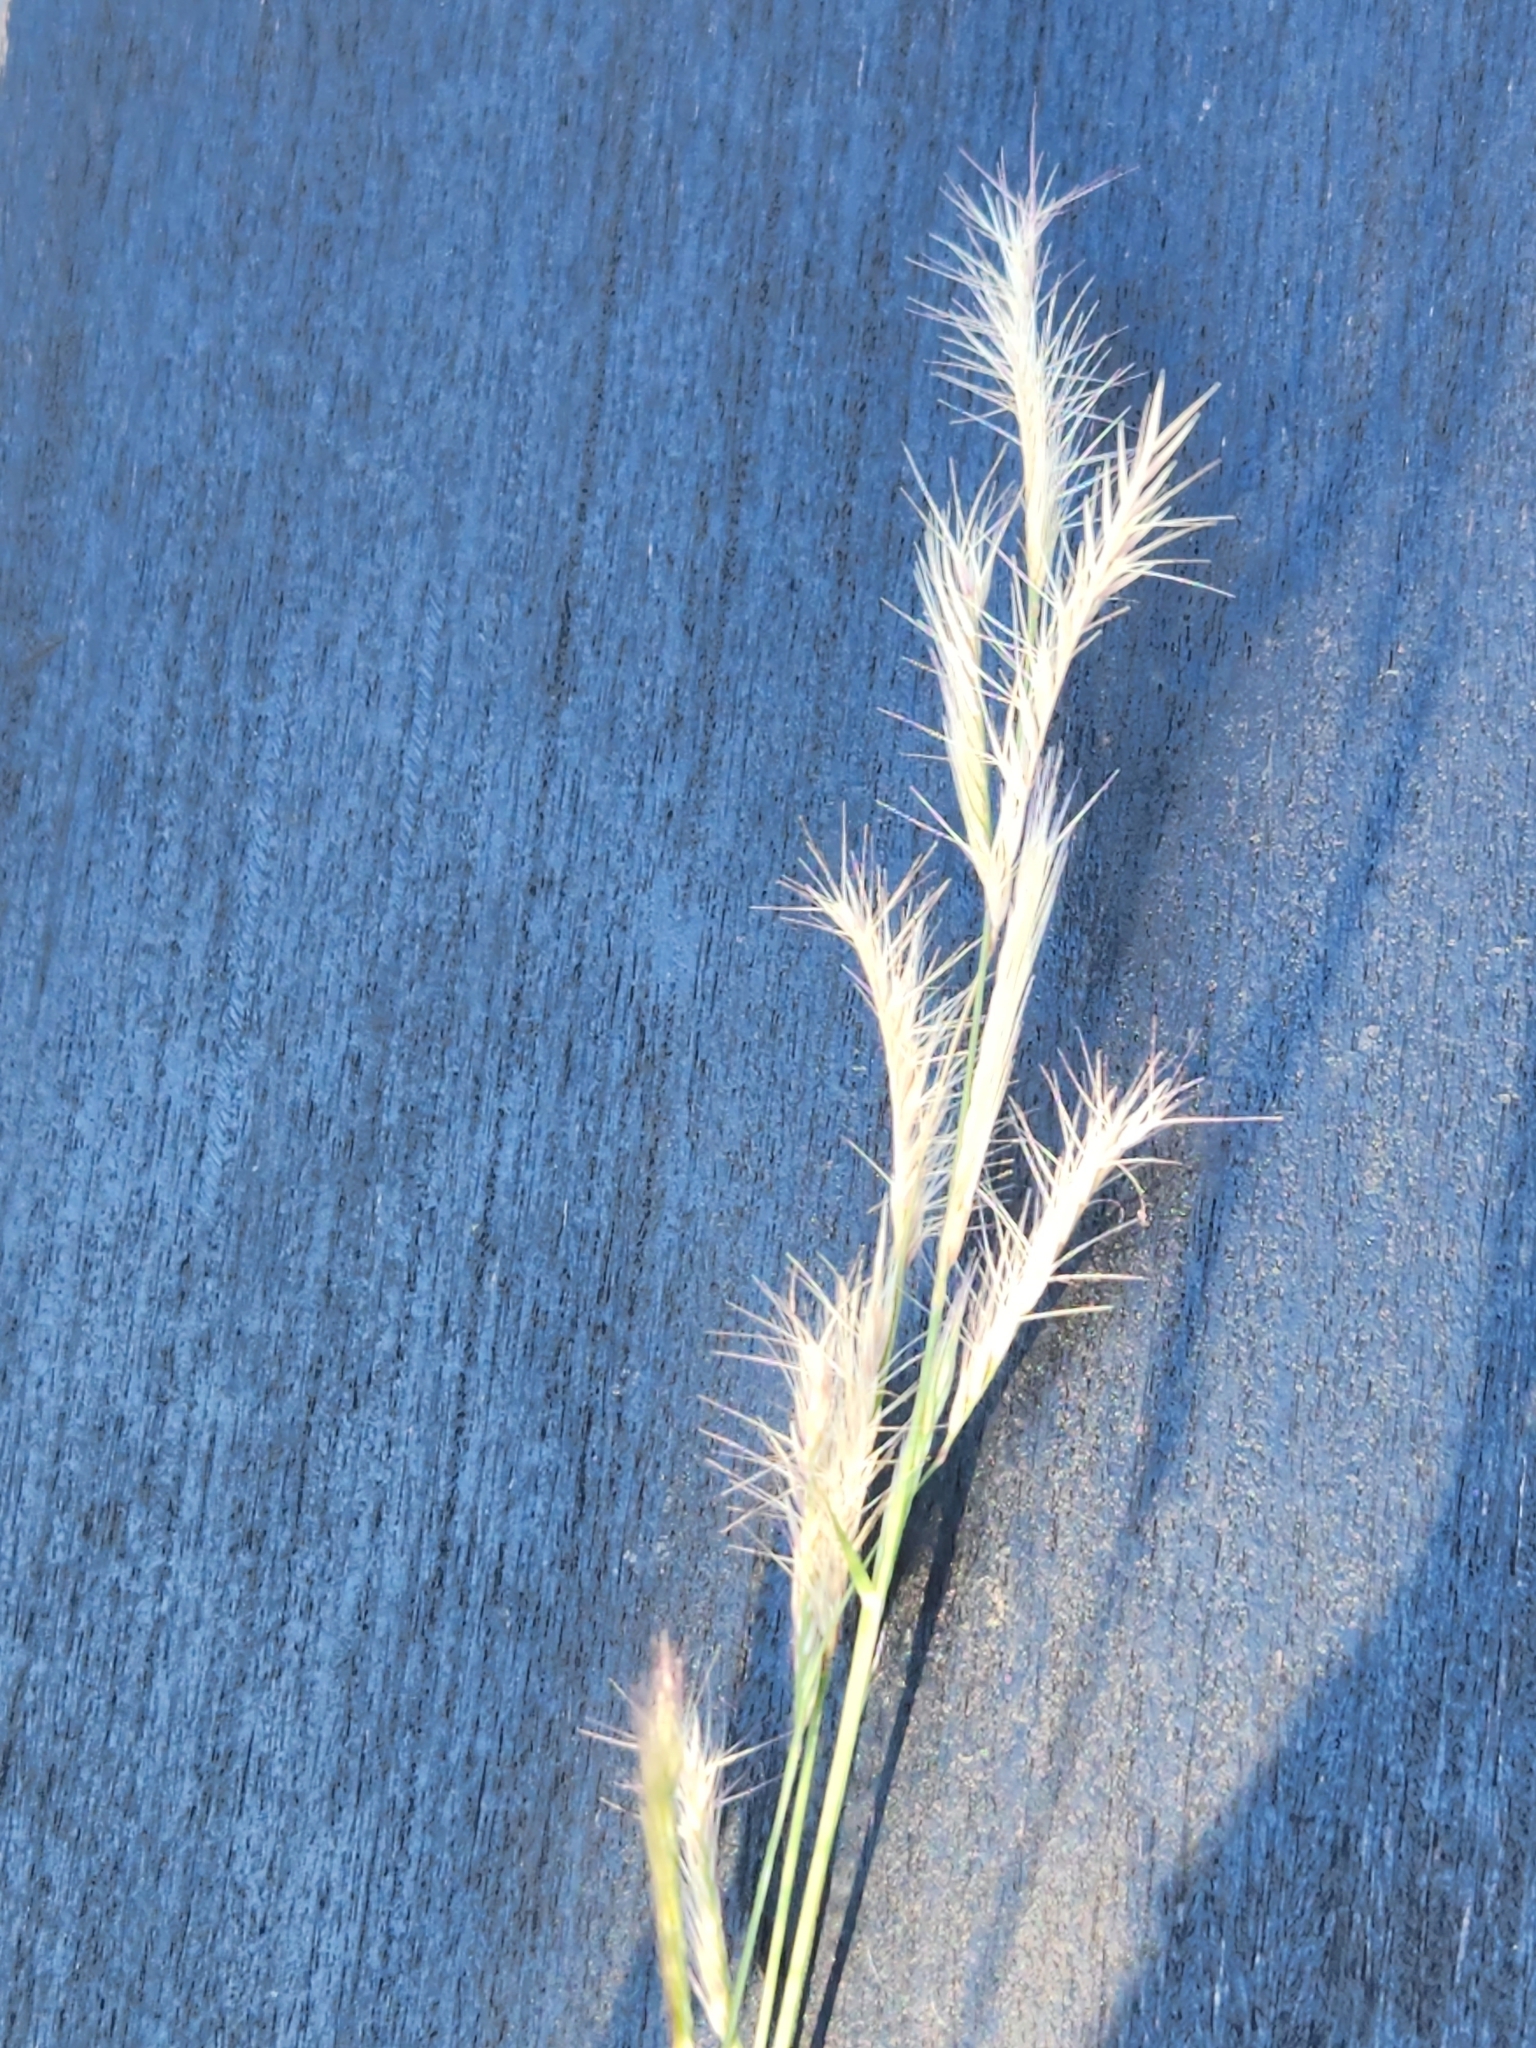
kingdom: Plantae
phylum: Tracheophyta
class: Liliopsida
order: Poales
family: Poaceae
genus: Bouteloua
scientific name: Bouteloua trifida
